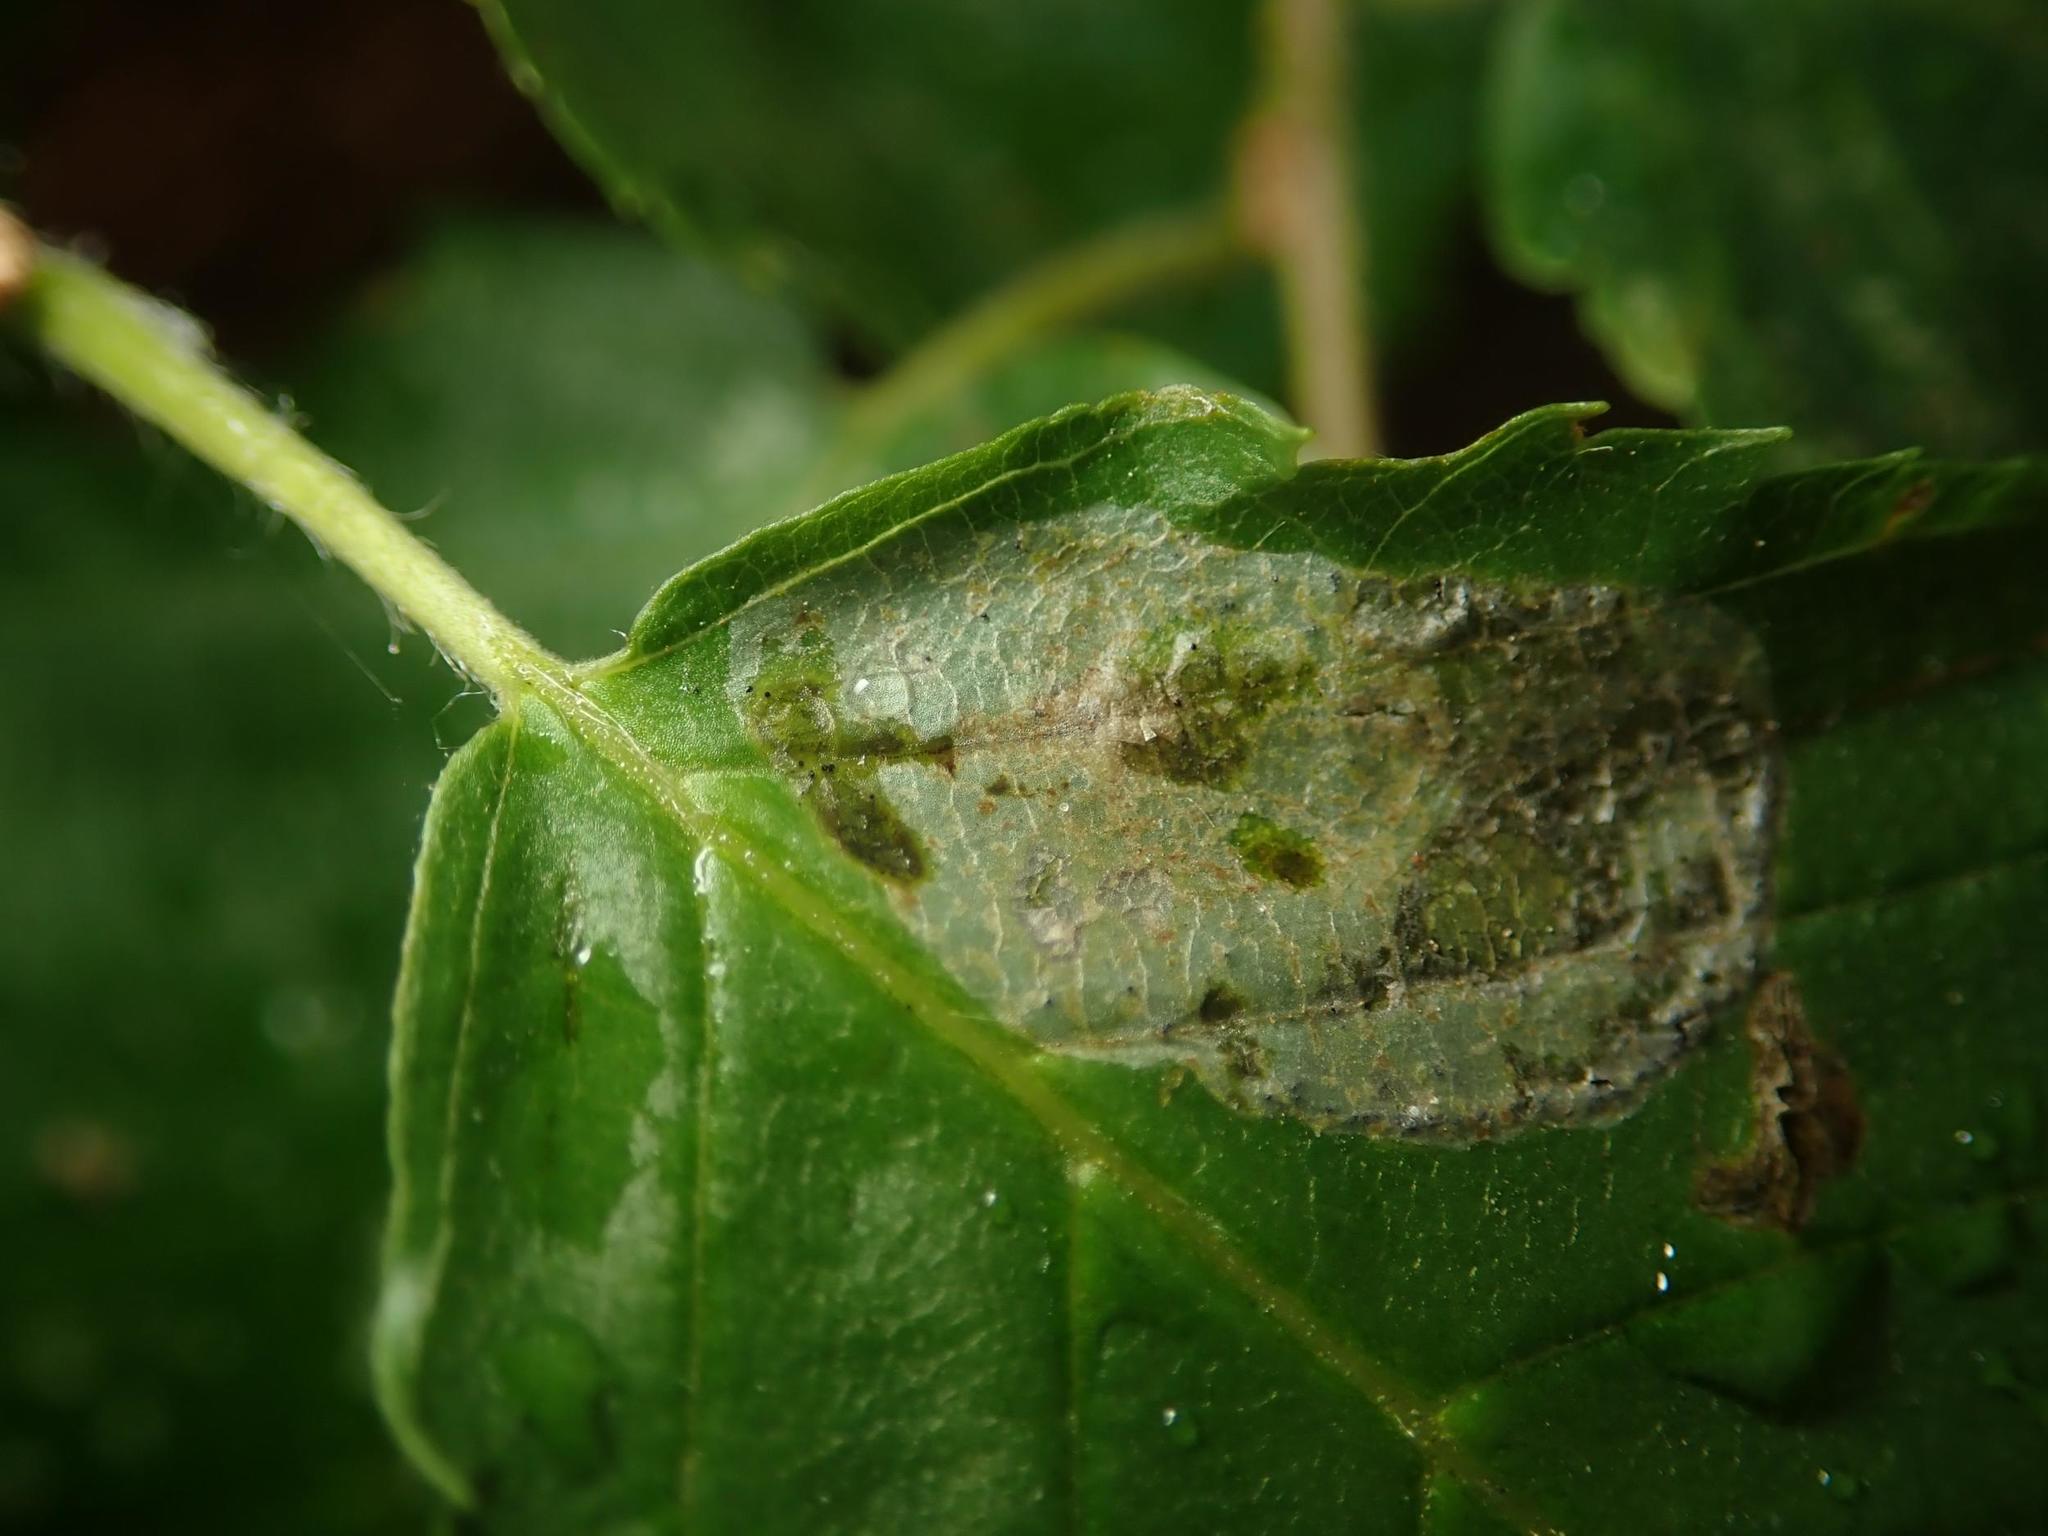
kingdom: Animalia
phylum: Arthropoda
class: Insecta
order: Lepidoptera
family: Gracillariidae
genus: Phyllonorycter
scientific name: Phyllonorycter esperella
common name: Dark hornbeam midget
